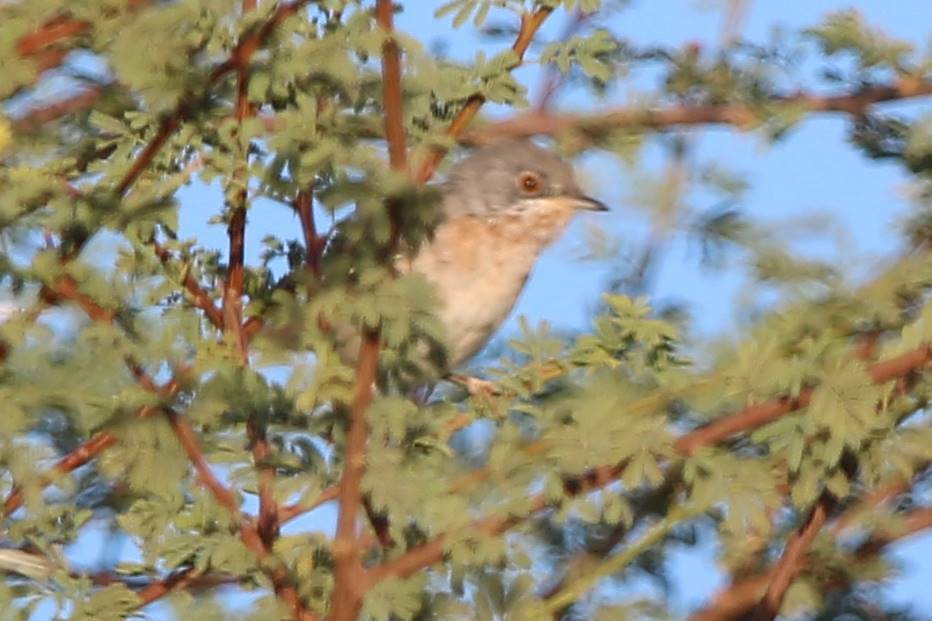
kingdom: Animalia
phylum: Chordata
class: Aves
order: Passeriformes
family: Sylviidae
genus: Curruca
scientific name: Curruca iberiae
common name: Western subalpine warbler
